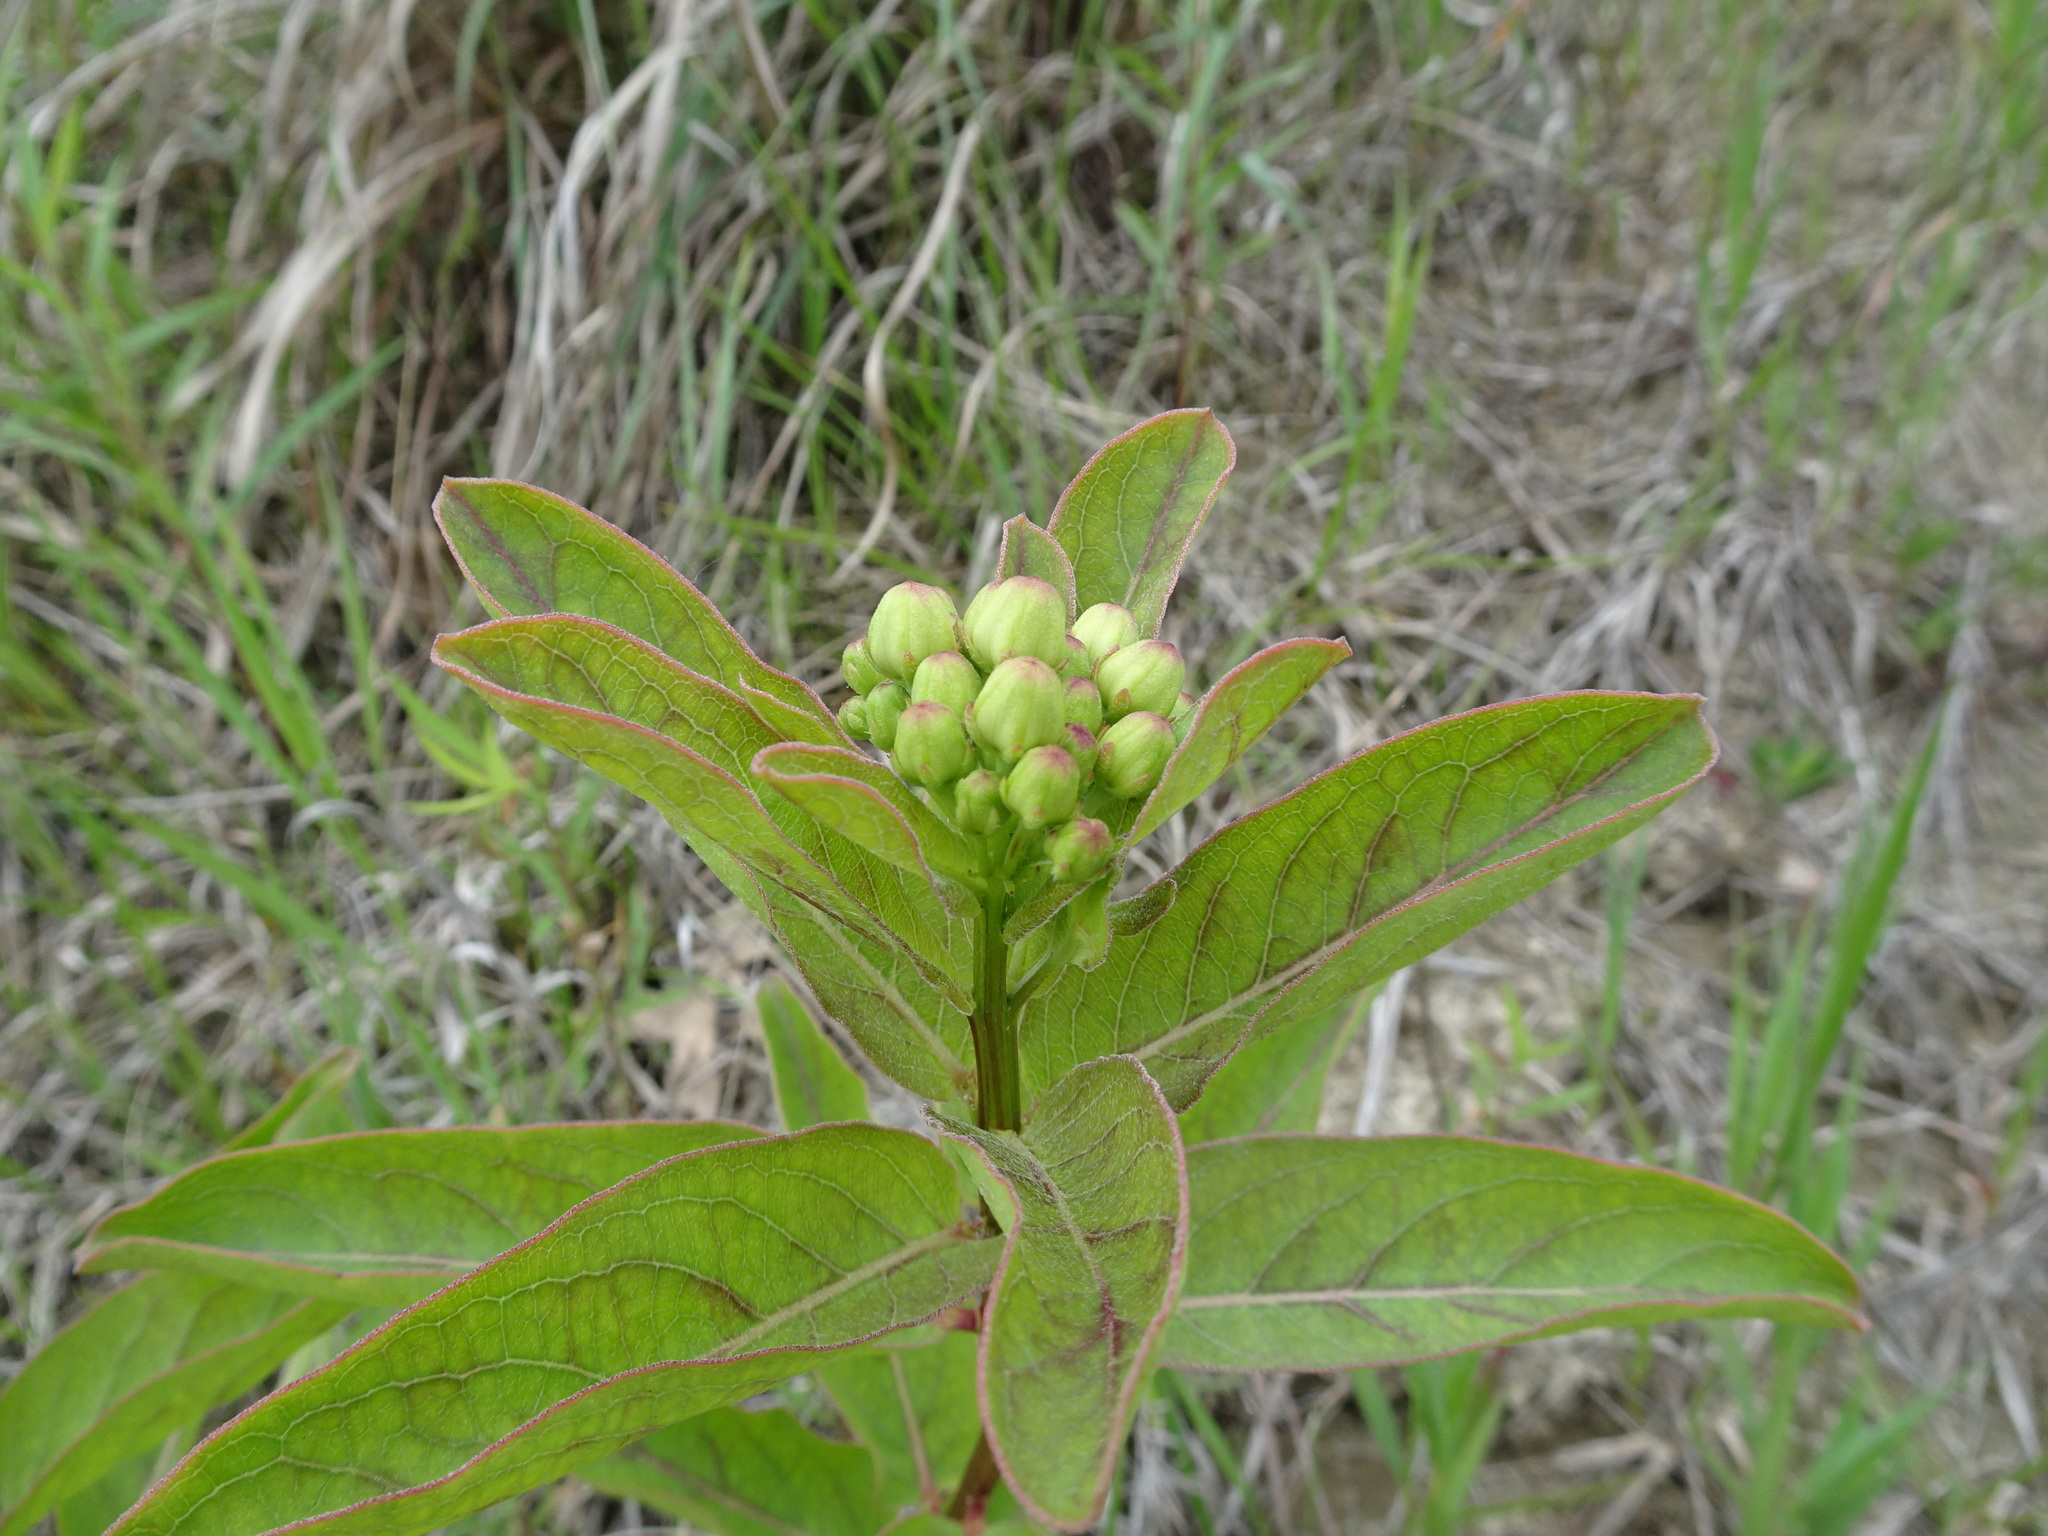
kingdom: Plantae
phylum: Tracheophyta
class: Magnoliopsida
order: Gentianales
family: Apocynaceae
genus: Asclepias
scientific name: Asclepias viridis
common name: Antelope-horns
